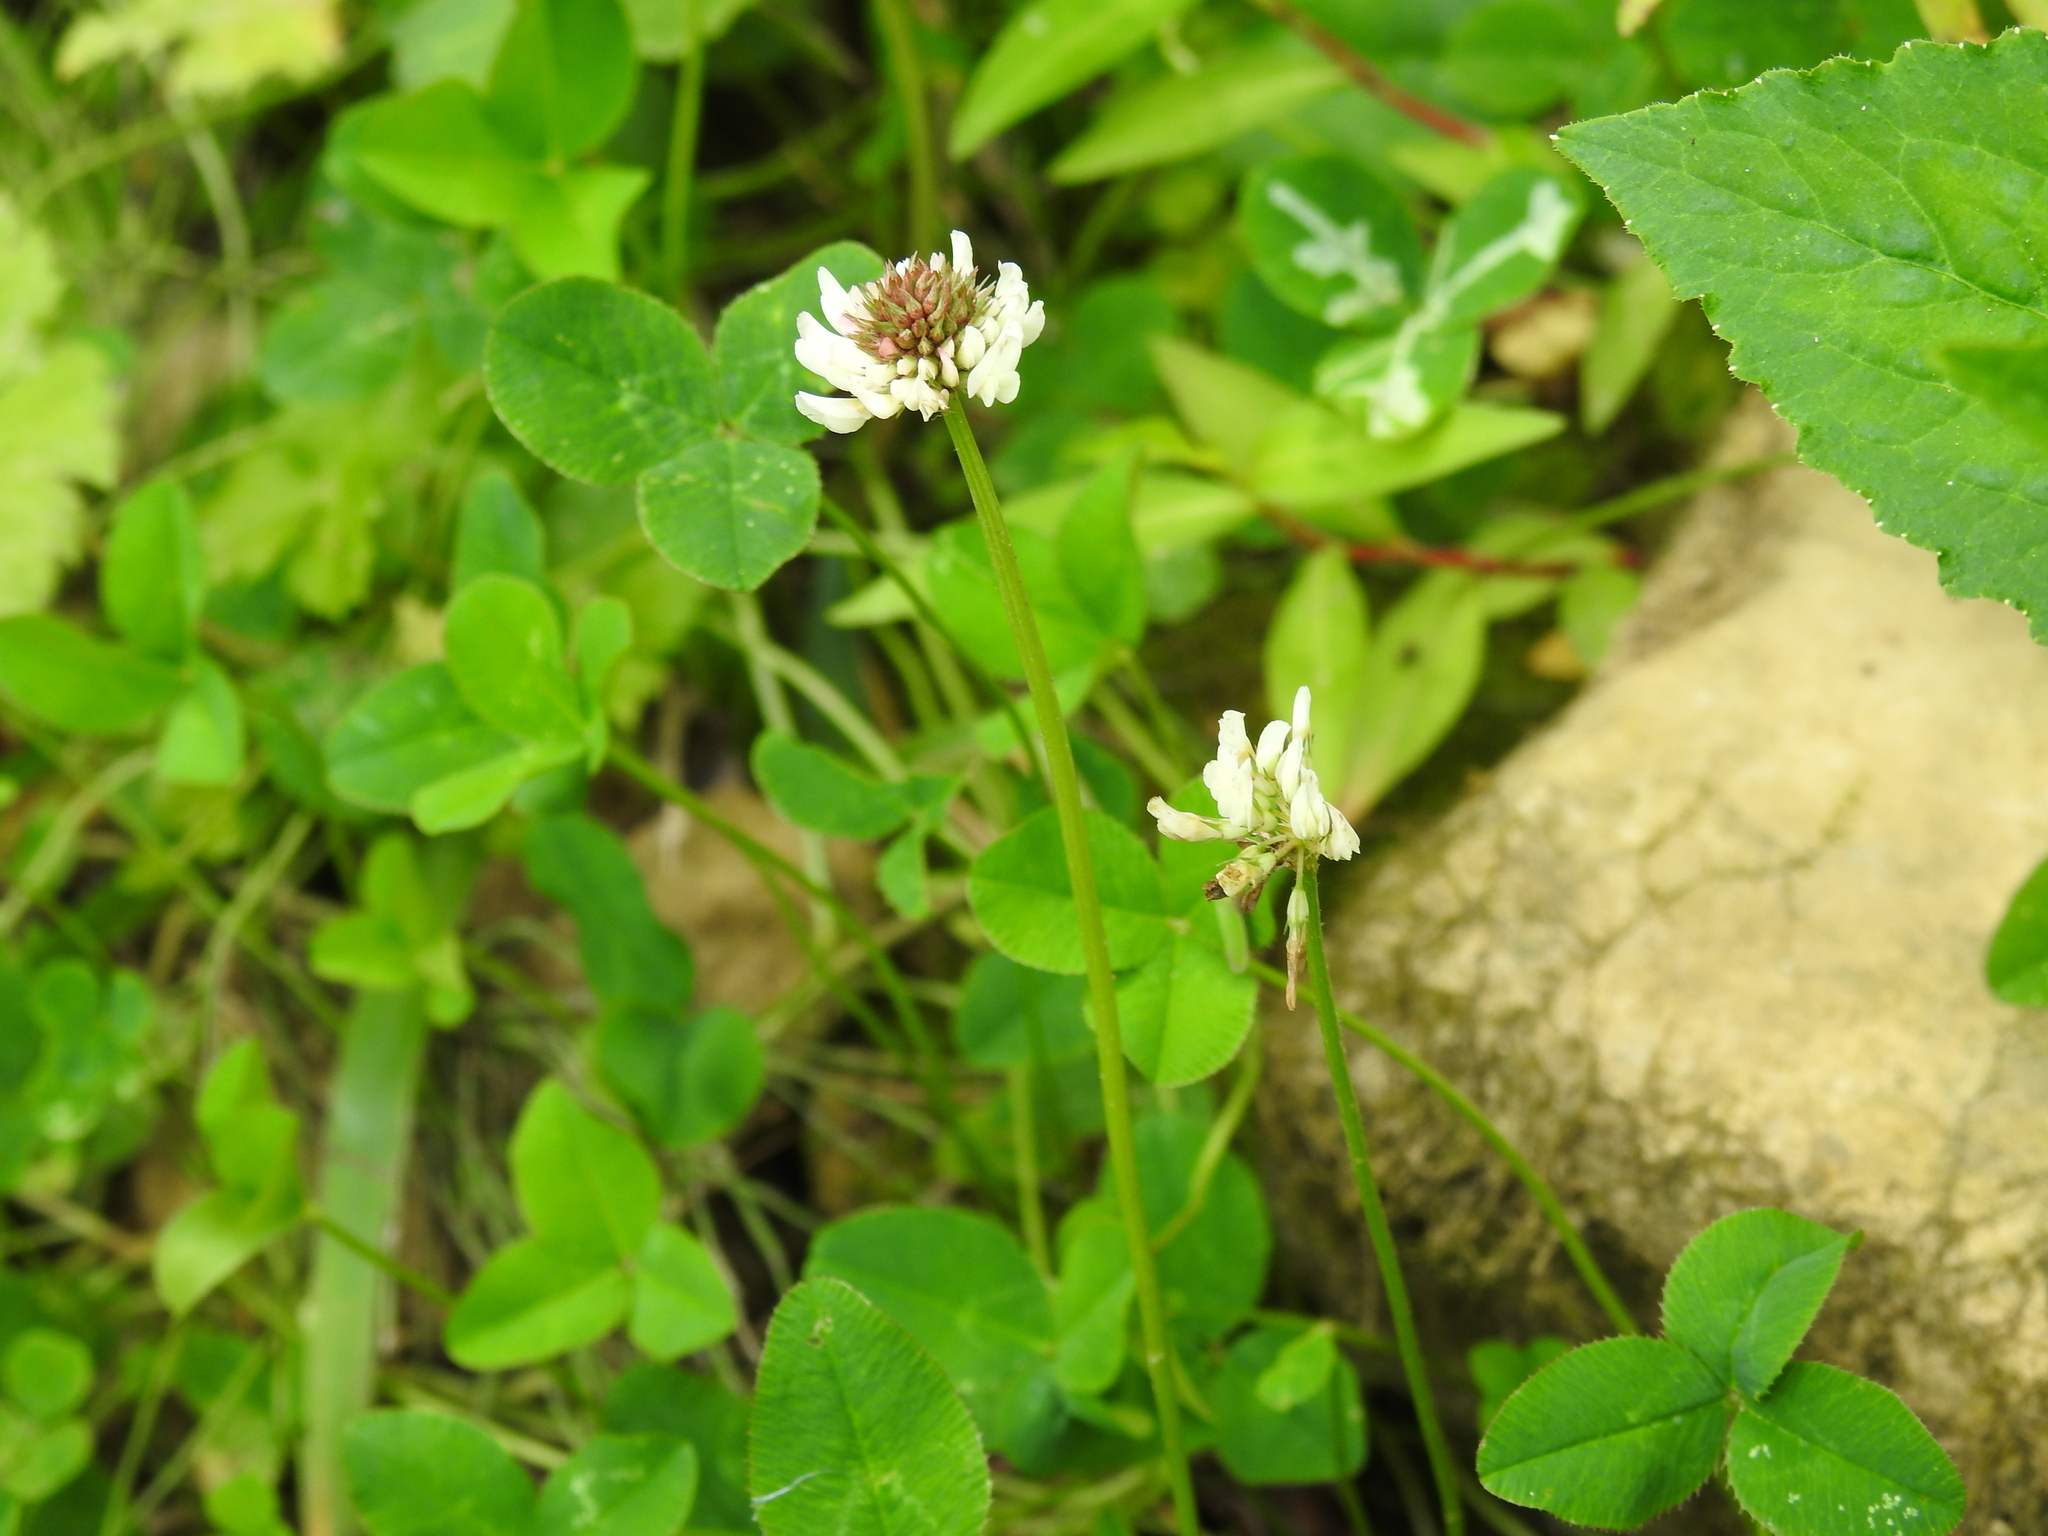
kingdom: Plantae
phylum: Tracheophyta
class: Magnoliopsida
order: Fabales
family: Fabaceae
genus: Trifolium
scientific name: Trifolium repens
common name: White clover
